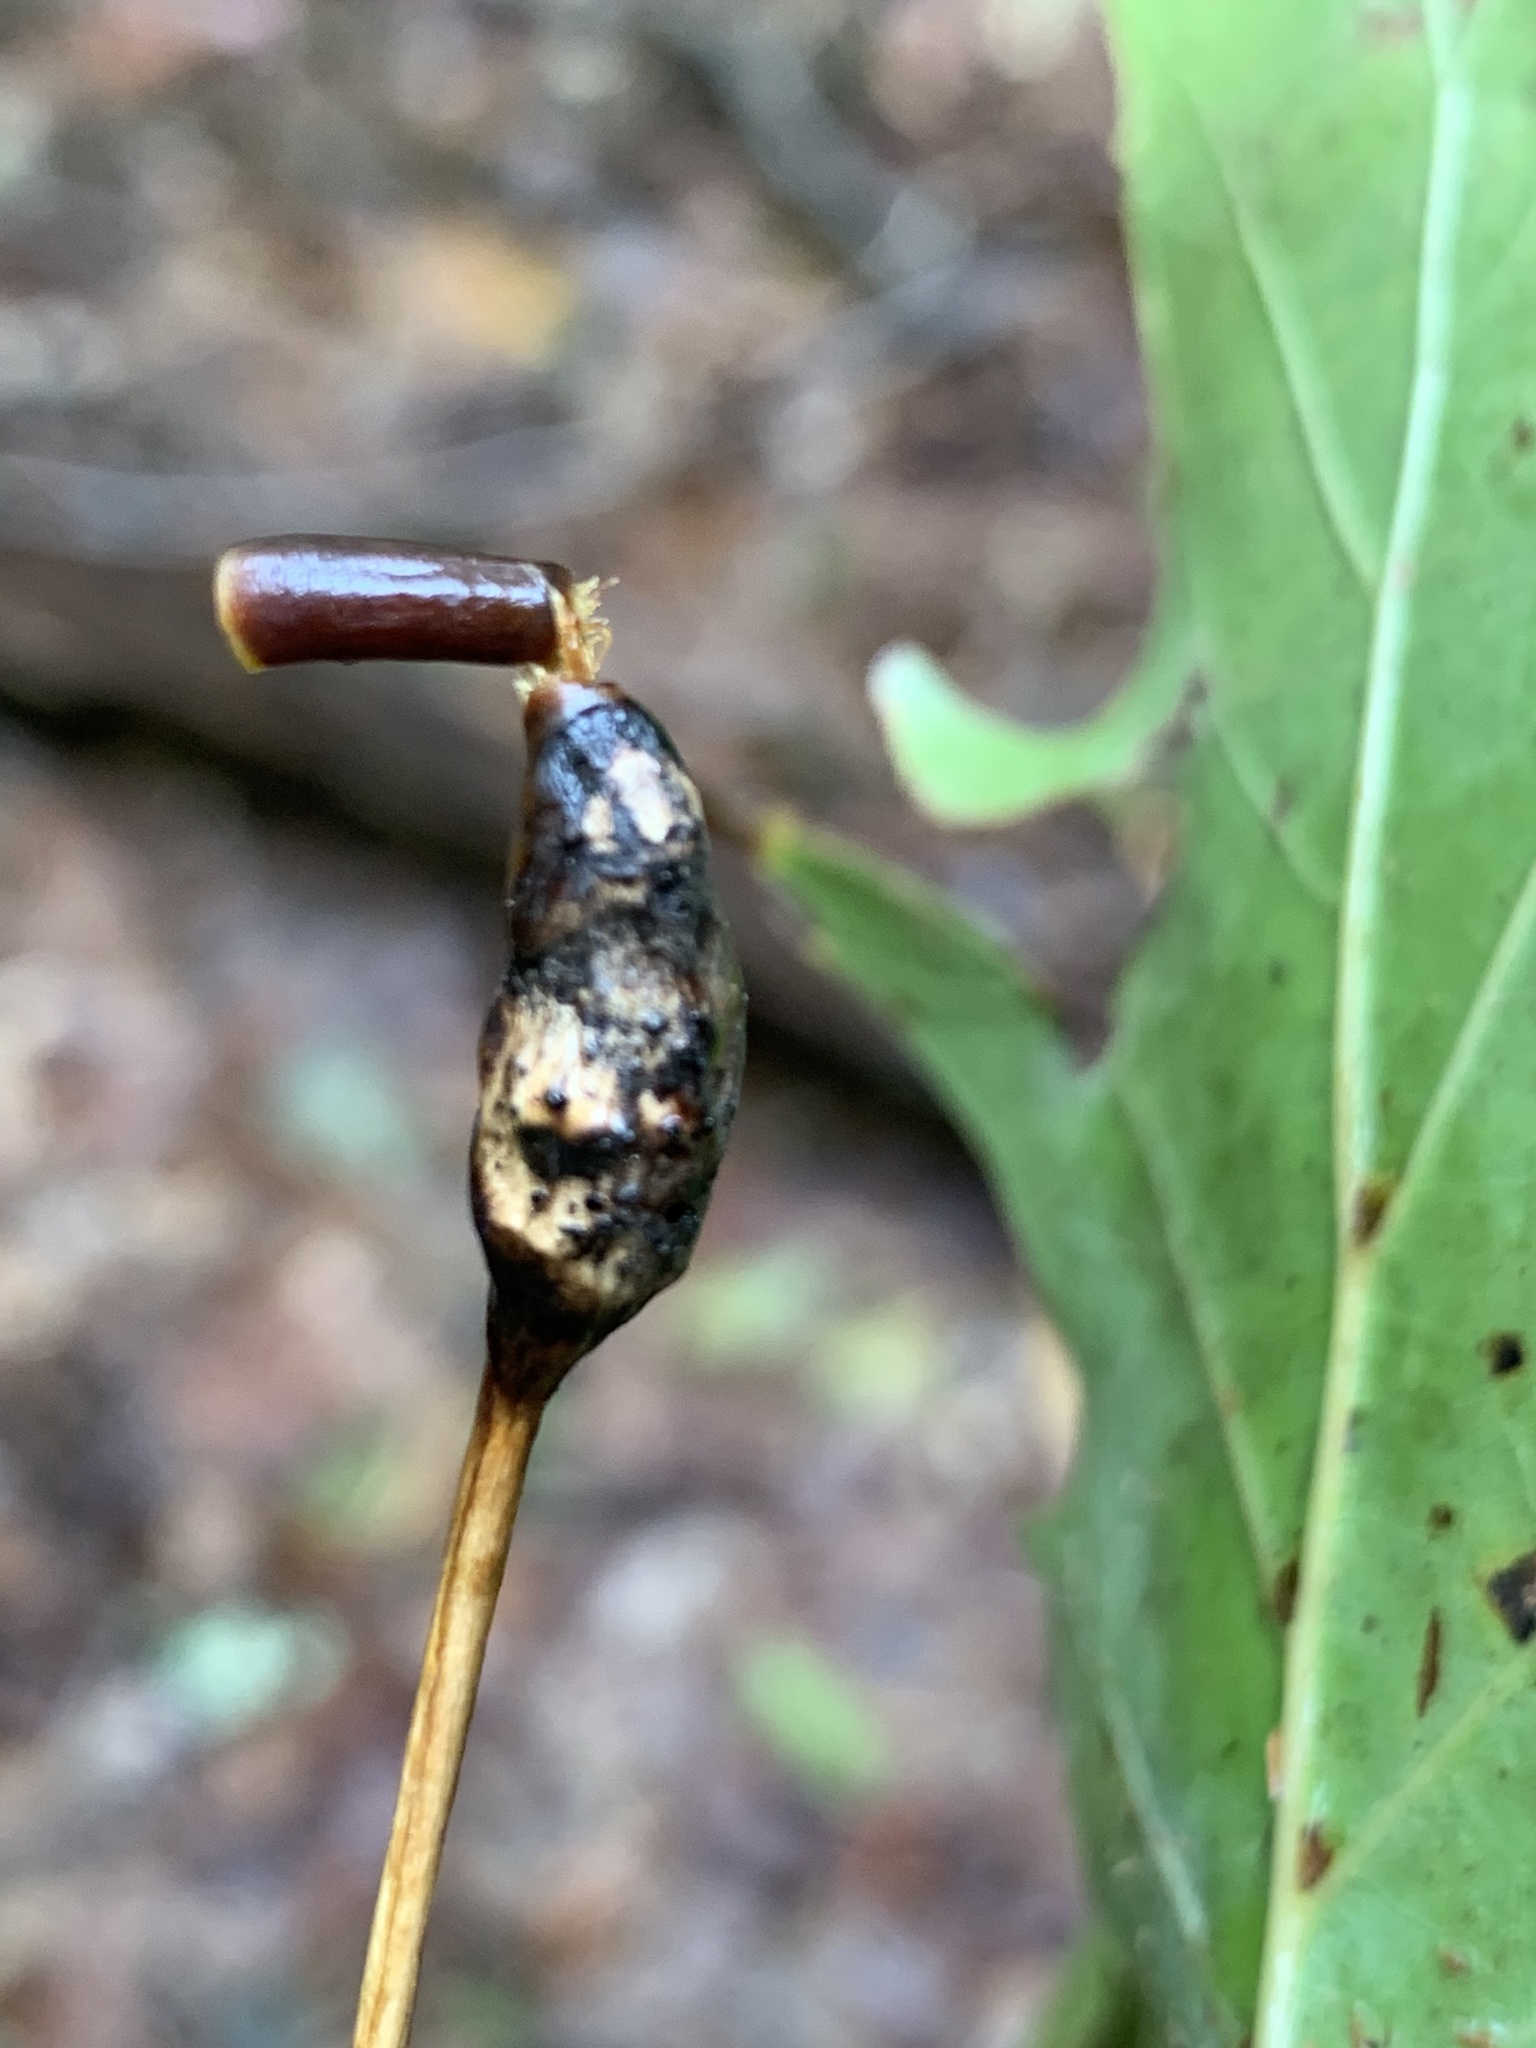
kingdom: Animalia
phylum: Arthropoda
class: Insecta
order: Hymenoptera
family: Cynipidae
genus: Melikaiella
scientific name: Melikaiella tumifica
